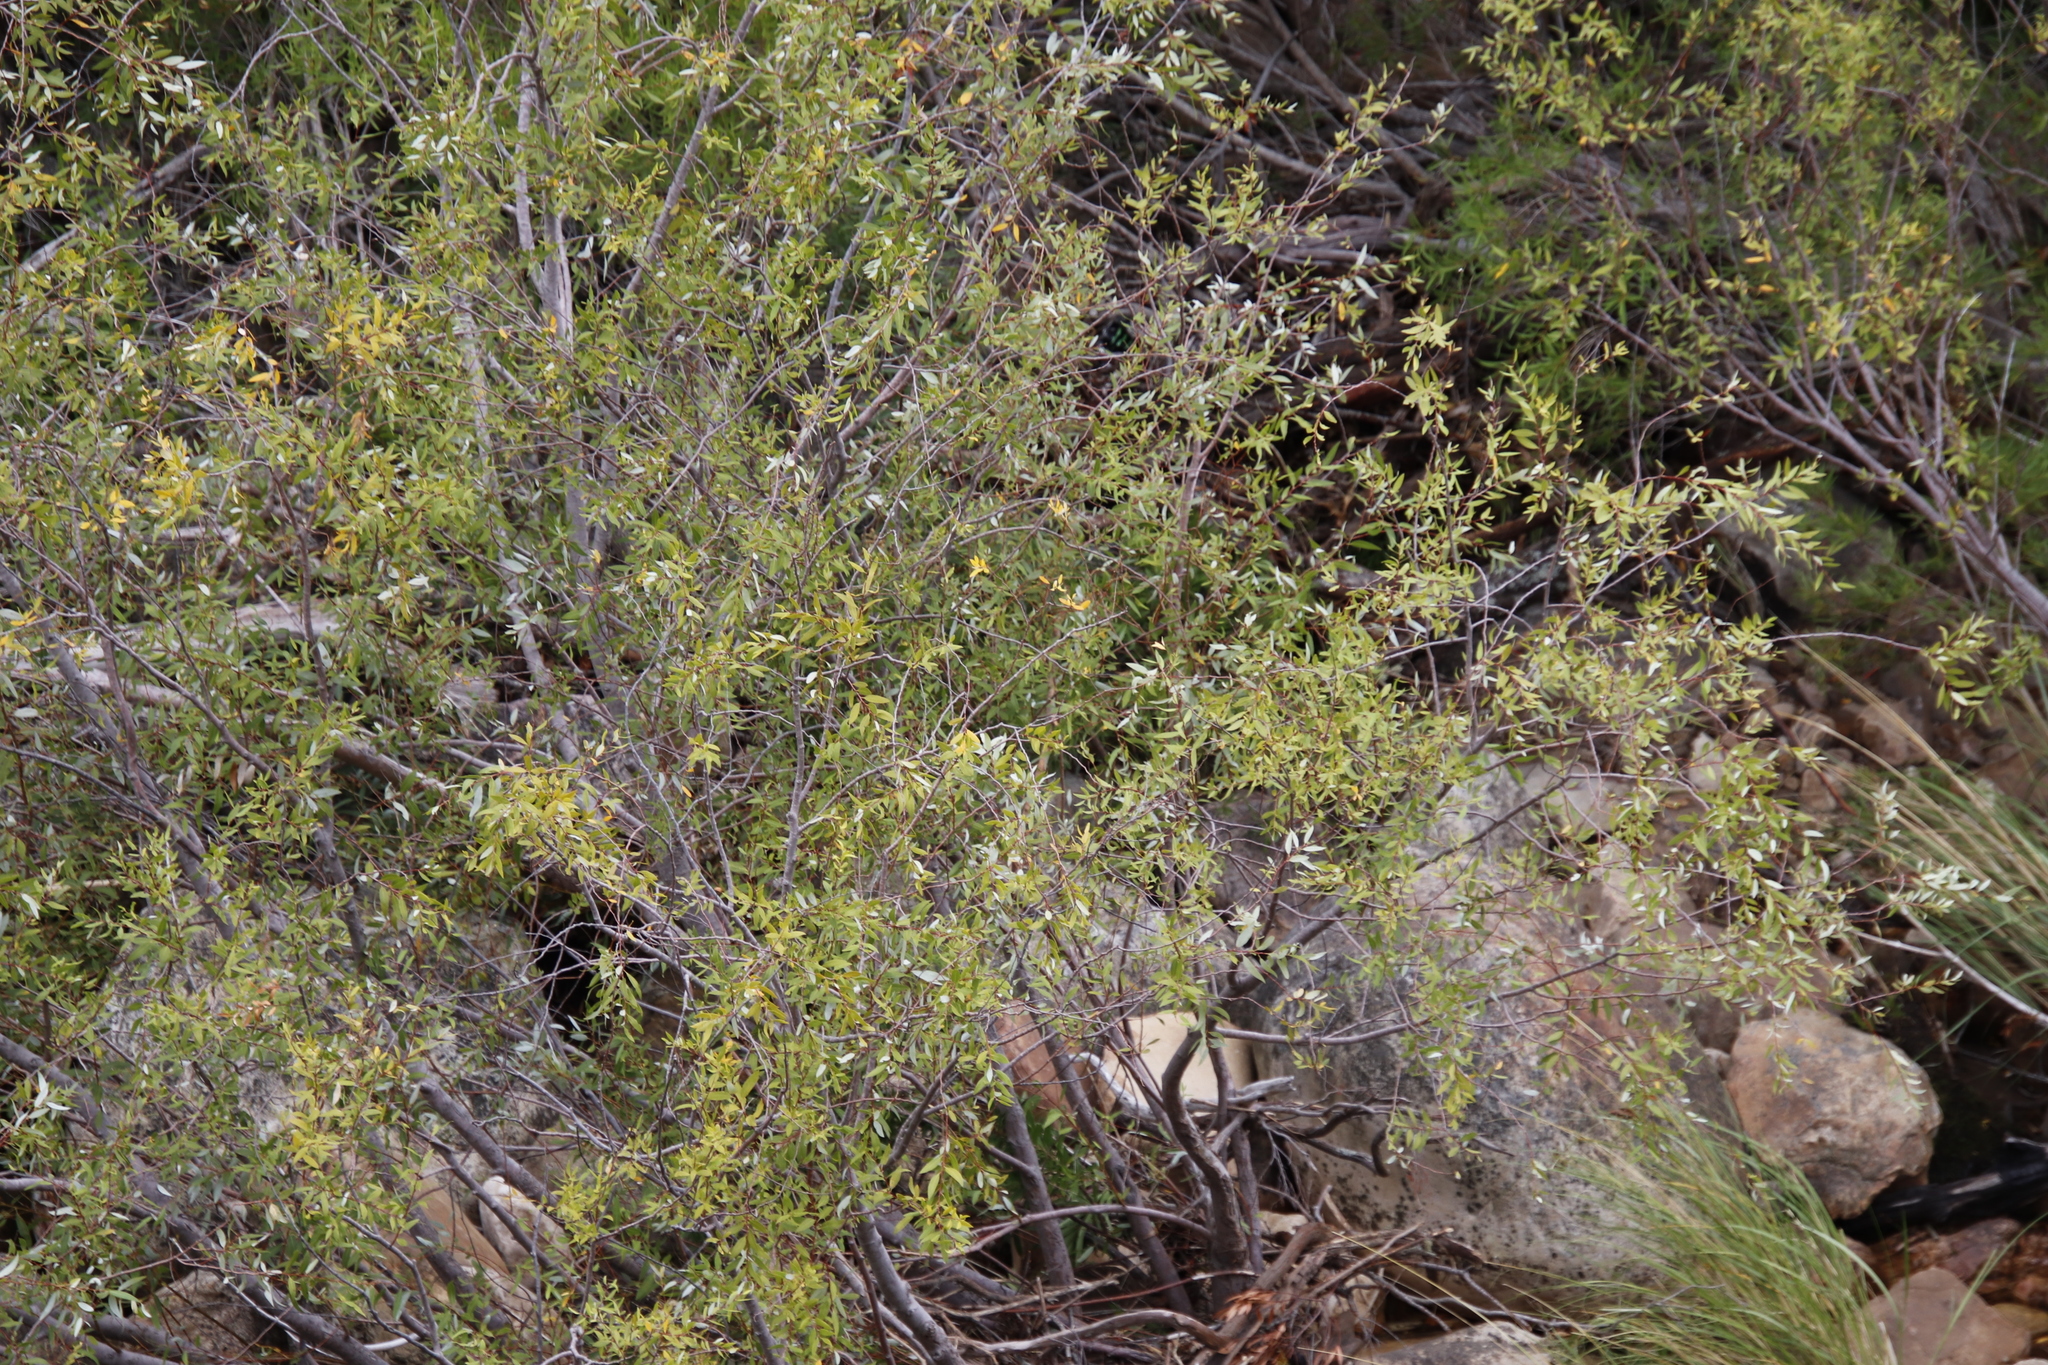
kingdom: Plantae
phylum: Tracheophyta
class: Magnoliopsida
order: Malpighiales
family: Salicaceae
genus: Salix
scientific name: Salix mucronata
